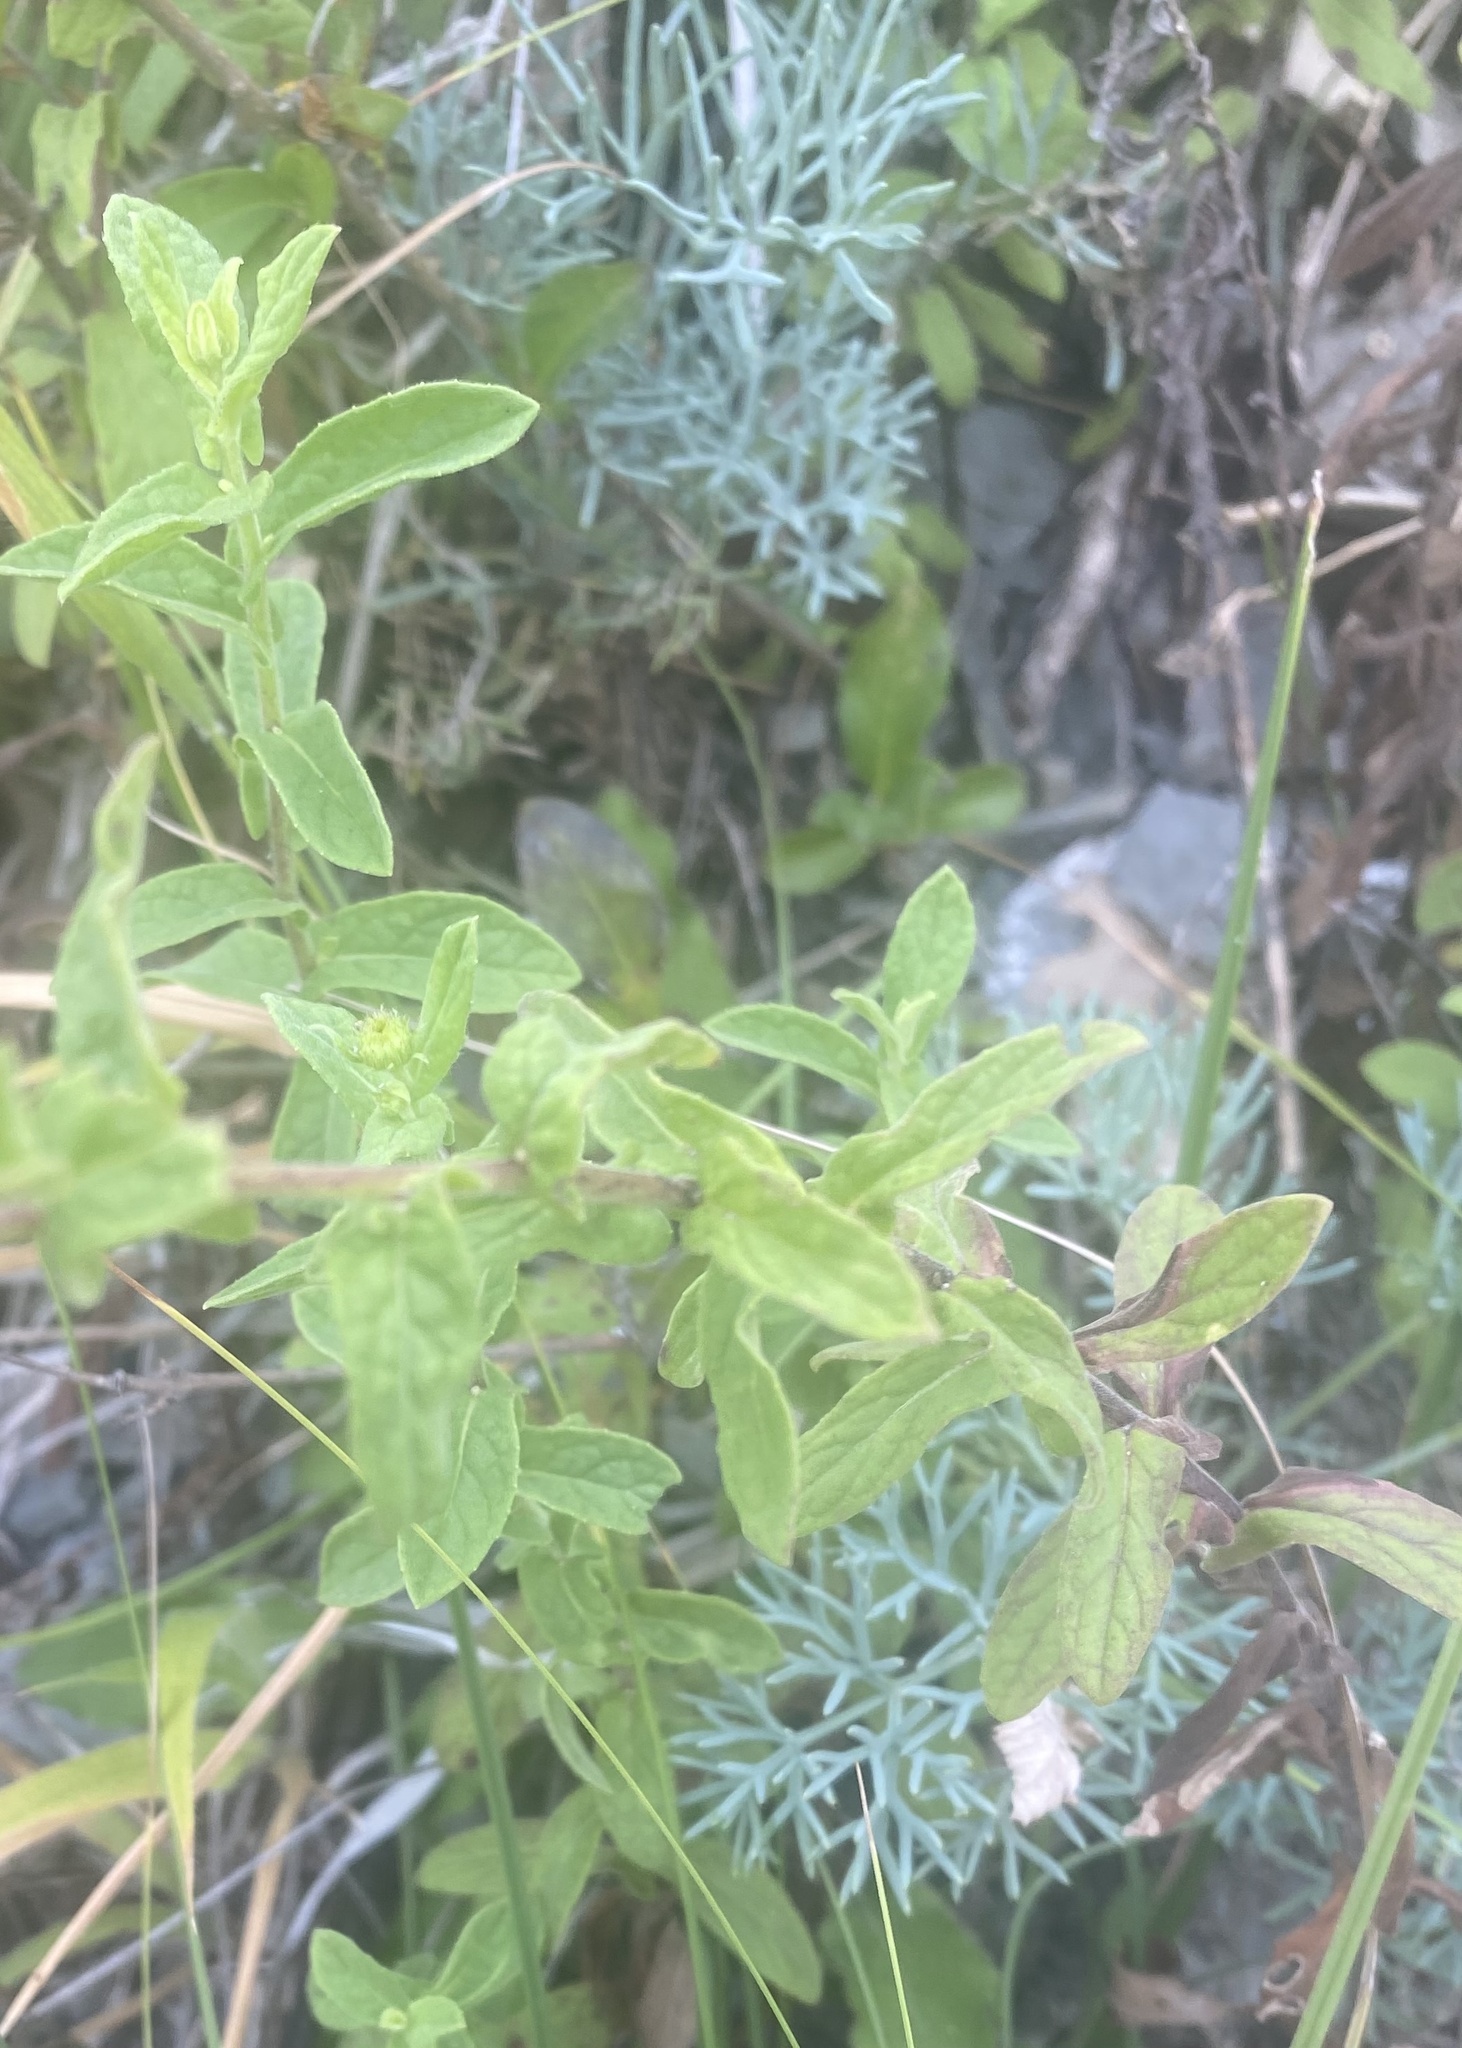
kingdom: Plantae
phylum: Tracheophyta
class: Magnoliopsida
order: Apiales
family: Apiaceae
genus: Seseli
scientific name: Seseli ponticum
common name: Pontic seseli
